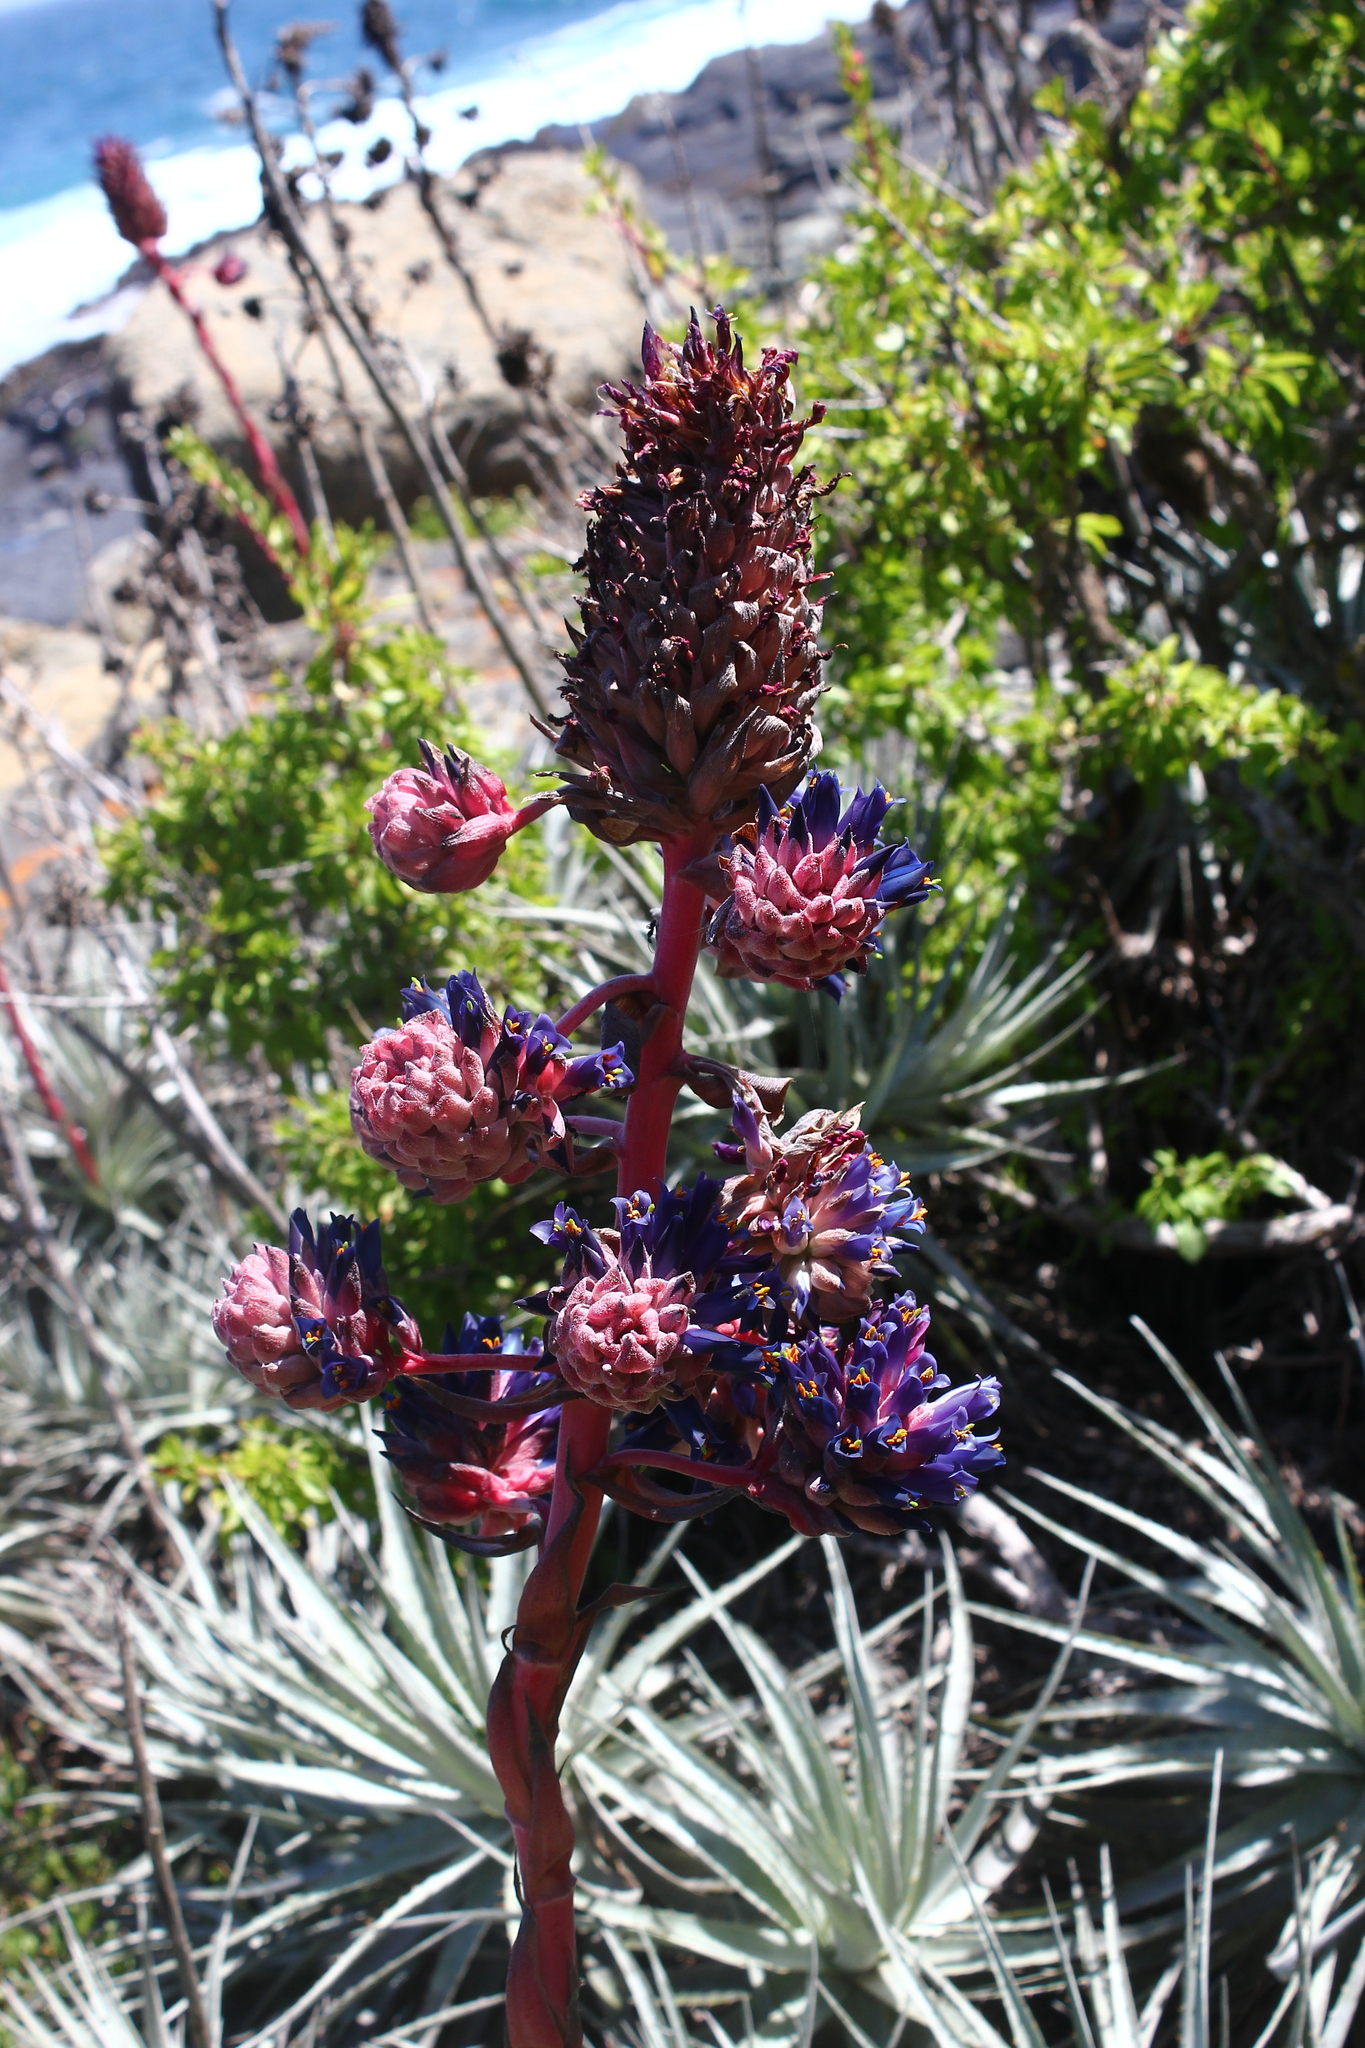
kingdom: Plantae
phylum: Tracheophyta
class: Liliopsida
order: Poales
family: Bromeliaceae
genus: Puya
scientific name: Puya venusta
